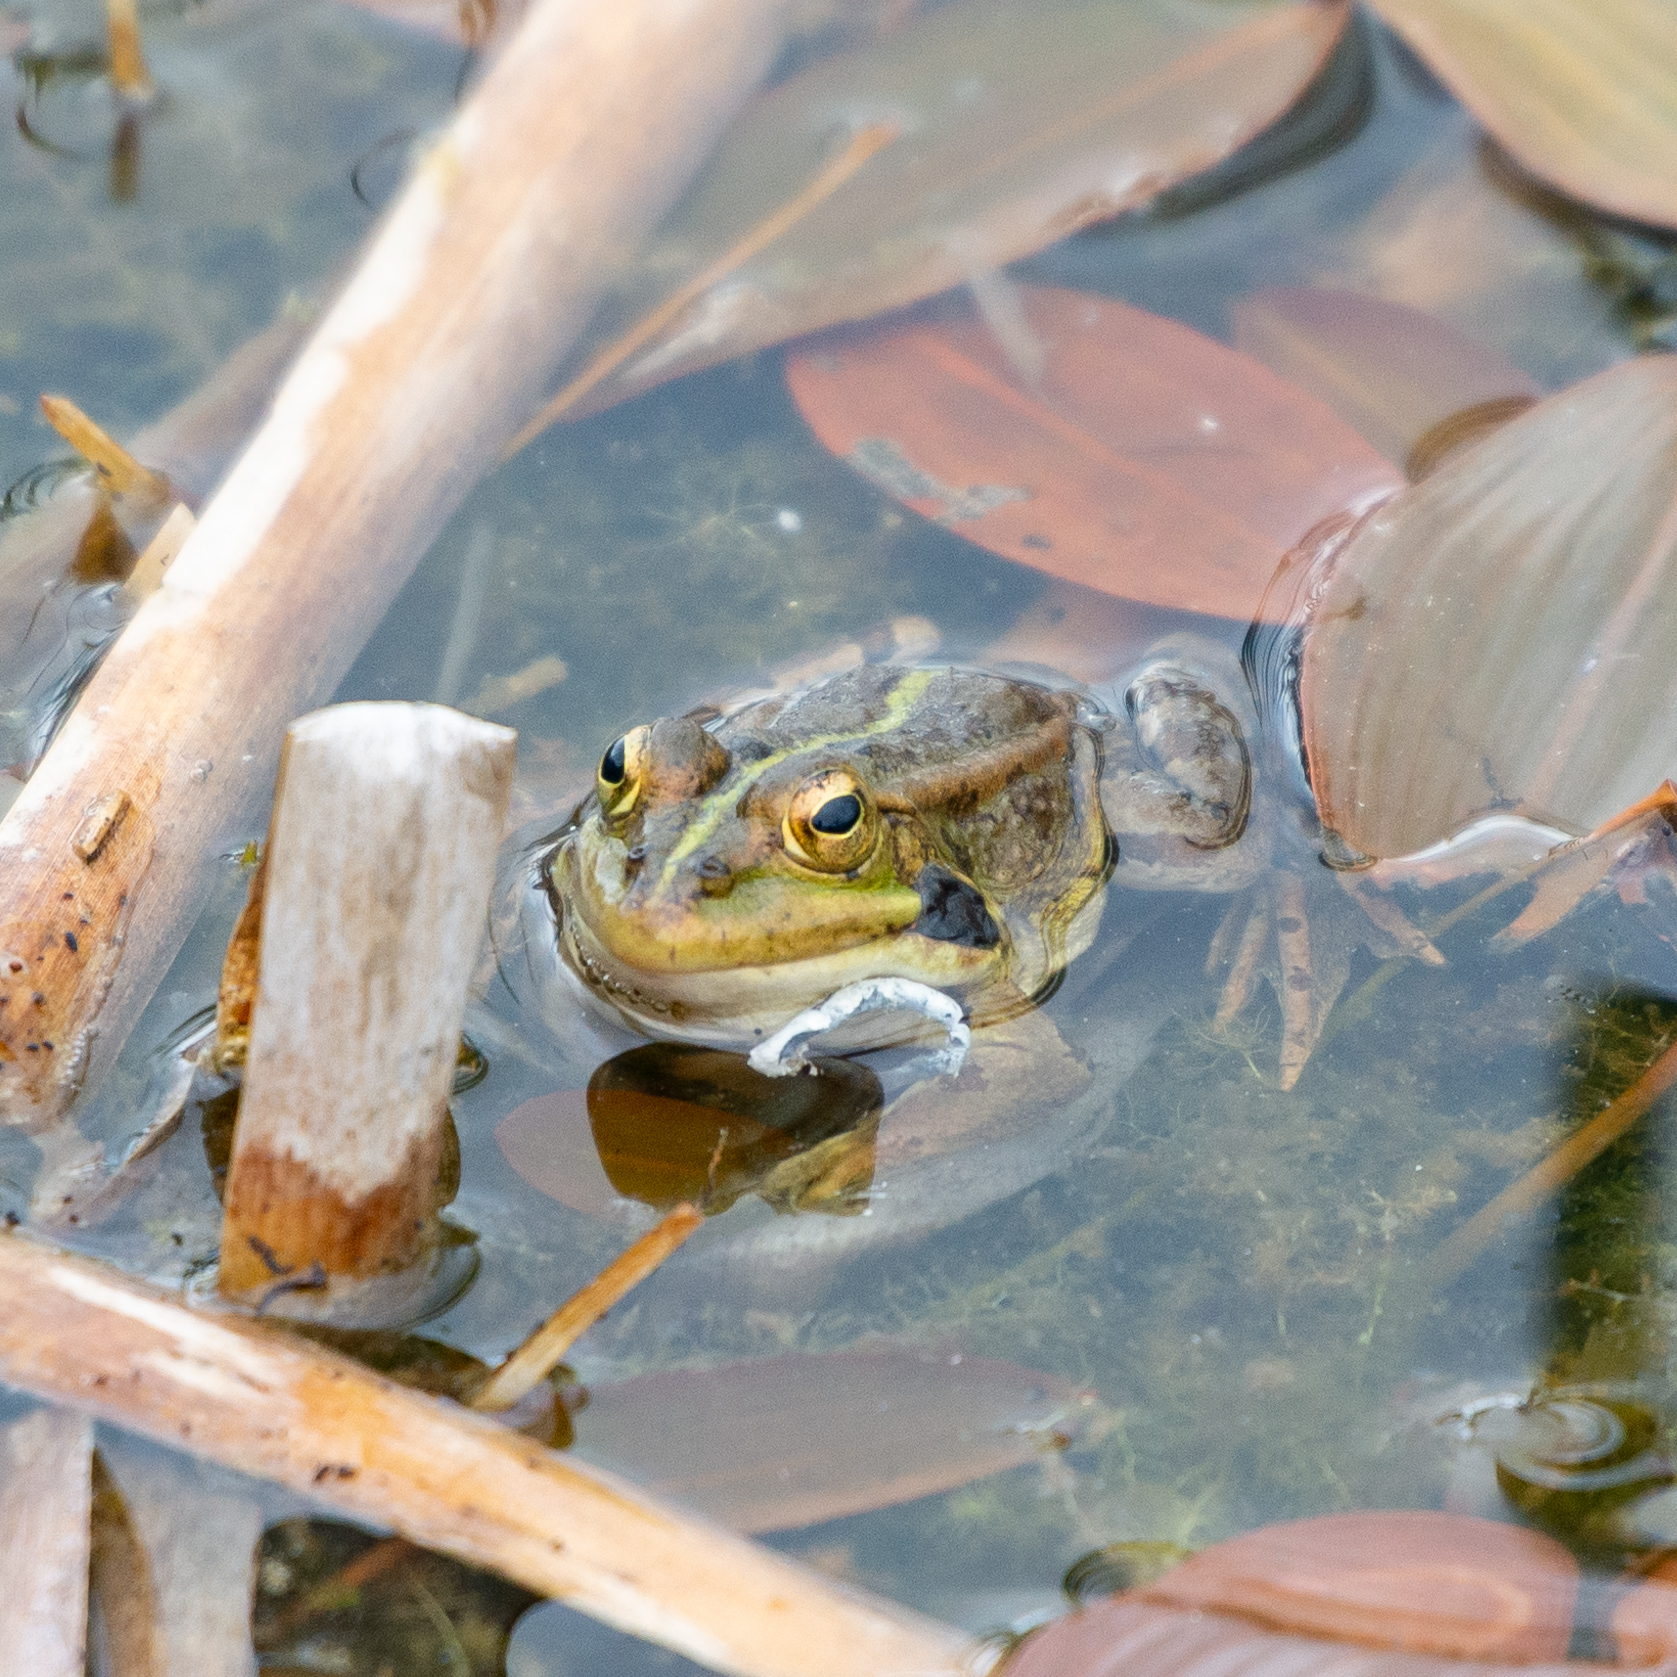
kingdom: Animalia
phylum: Chordata
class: Amphibia
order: Anura
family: Ranidae
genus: Pelophylax
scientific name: Pelophylax perezi
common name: Perez's frog
